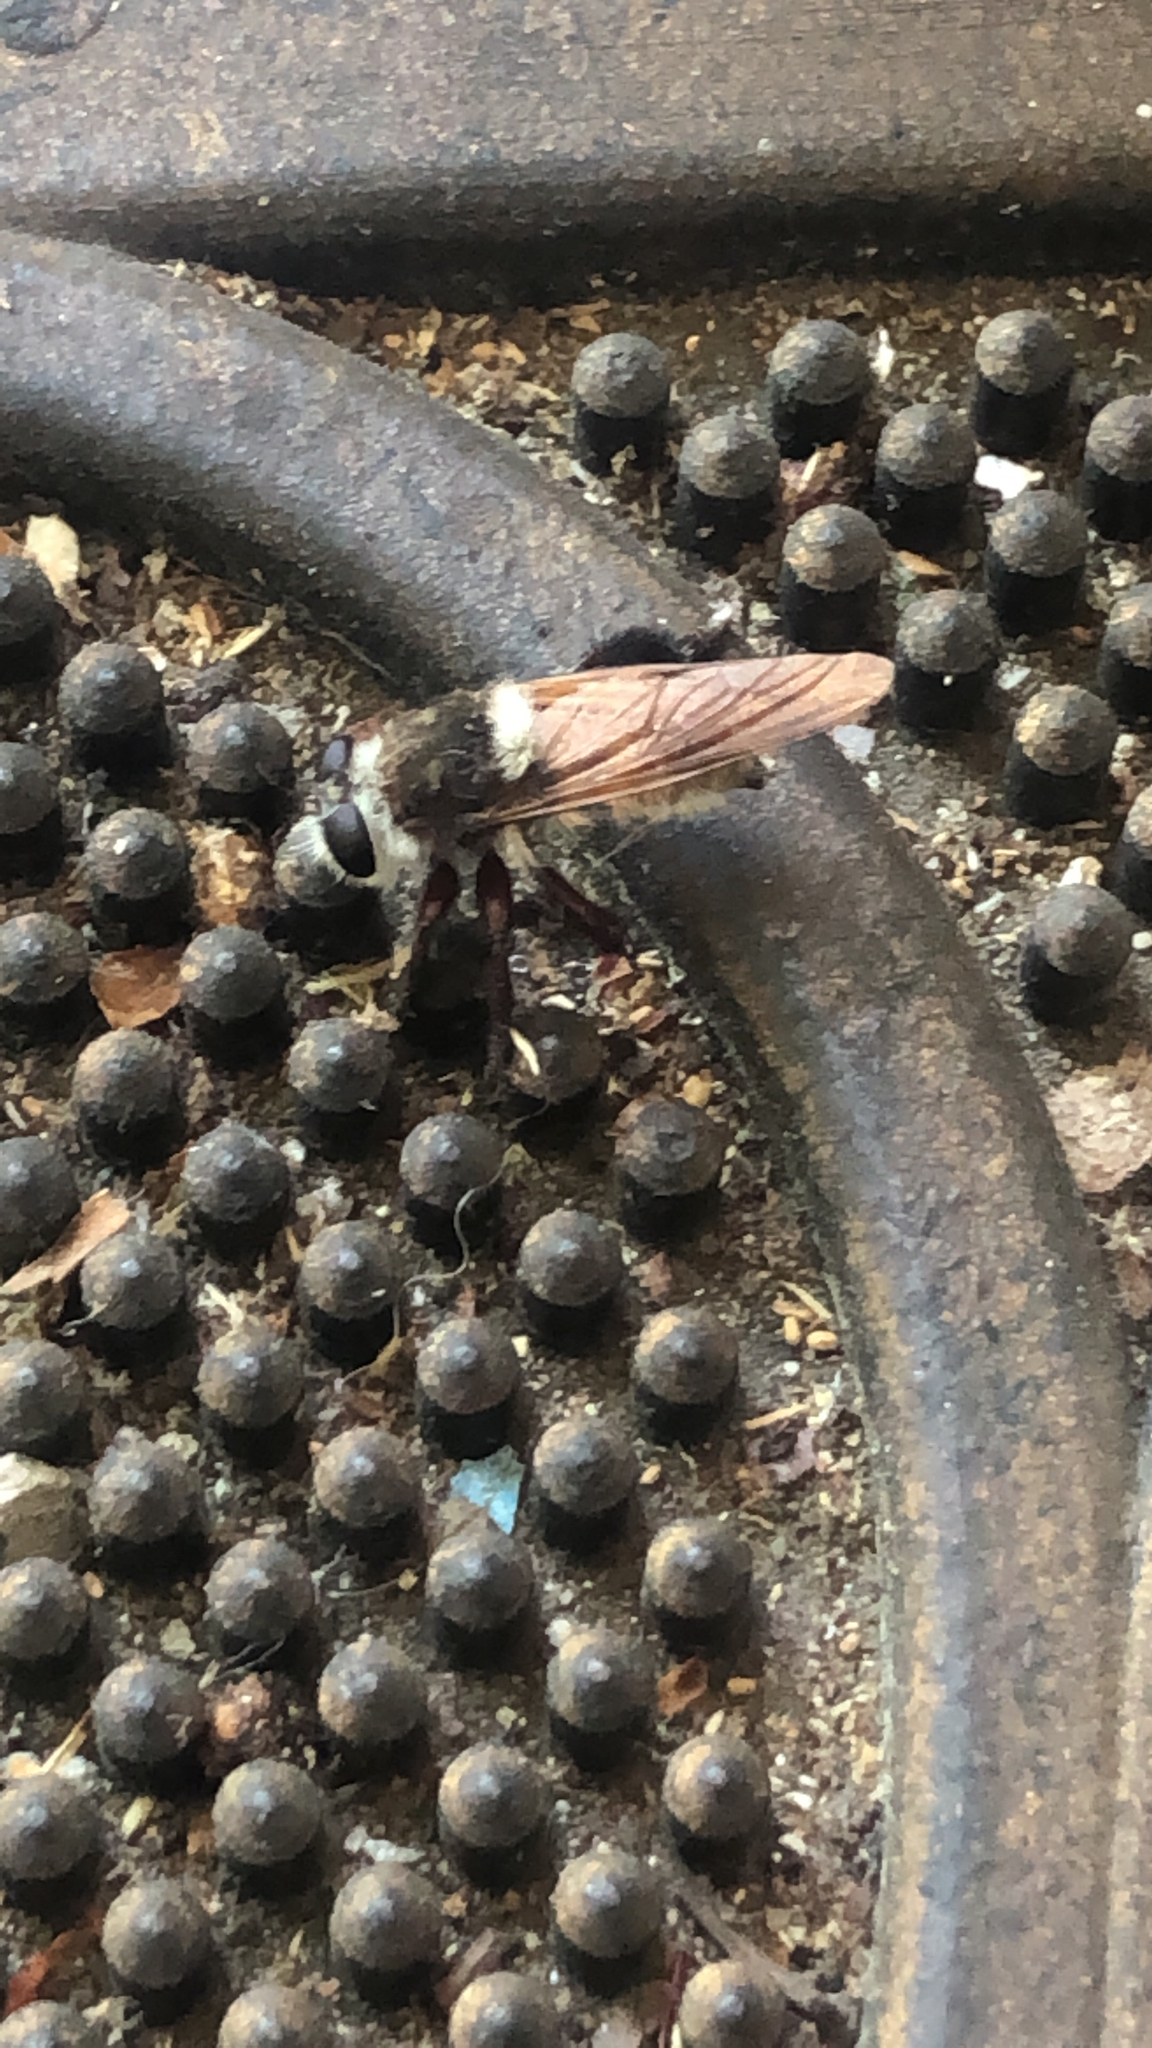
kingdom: Animalia
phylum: Arthropoda
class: Insecta
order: Diptera
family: Asilidae
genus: Mallophora
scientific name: Mallophora fautrix
